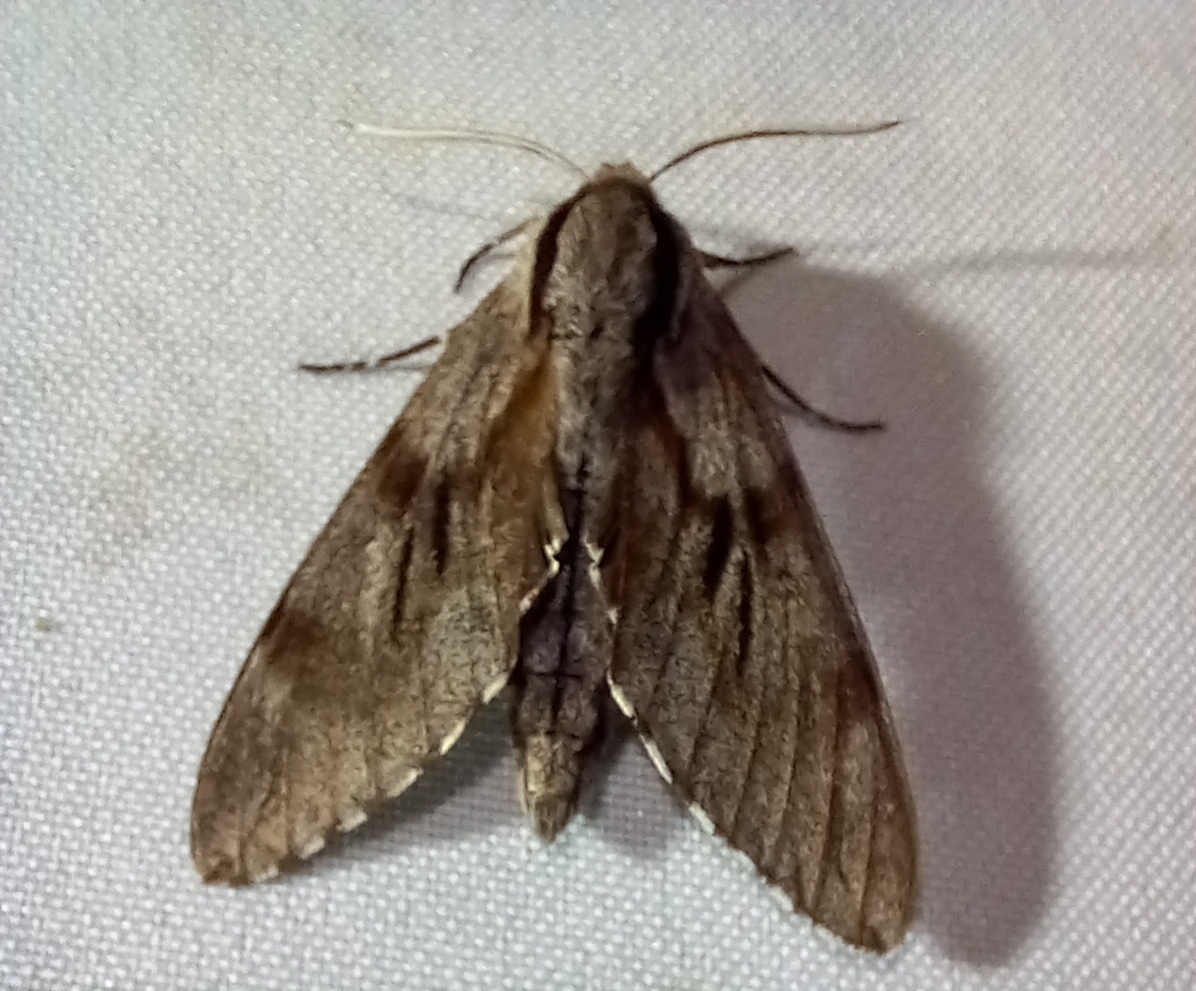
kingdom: Animalia
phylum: Arthropoda
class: Insecta
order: Lepidoptera
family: Sphingidae
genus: Sphinx
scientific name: Sphinx maurorum
